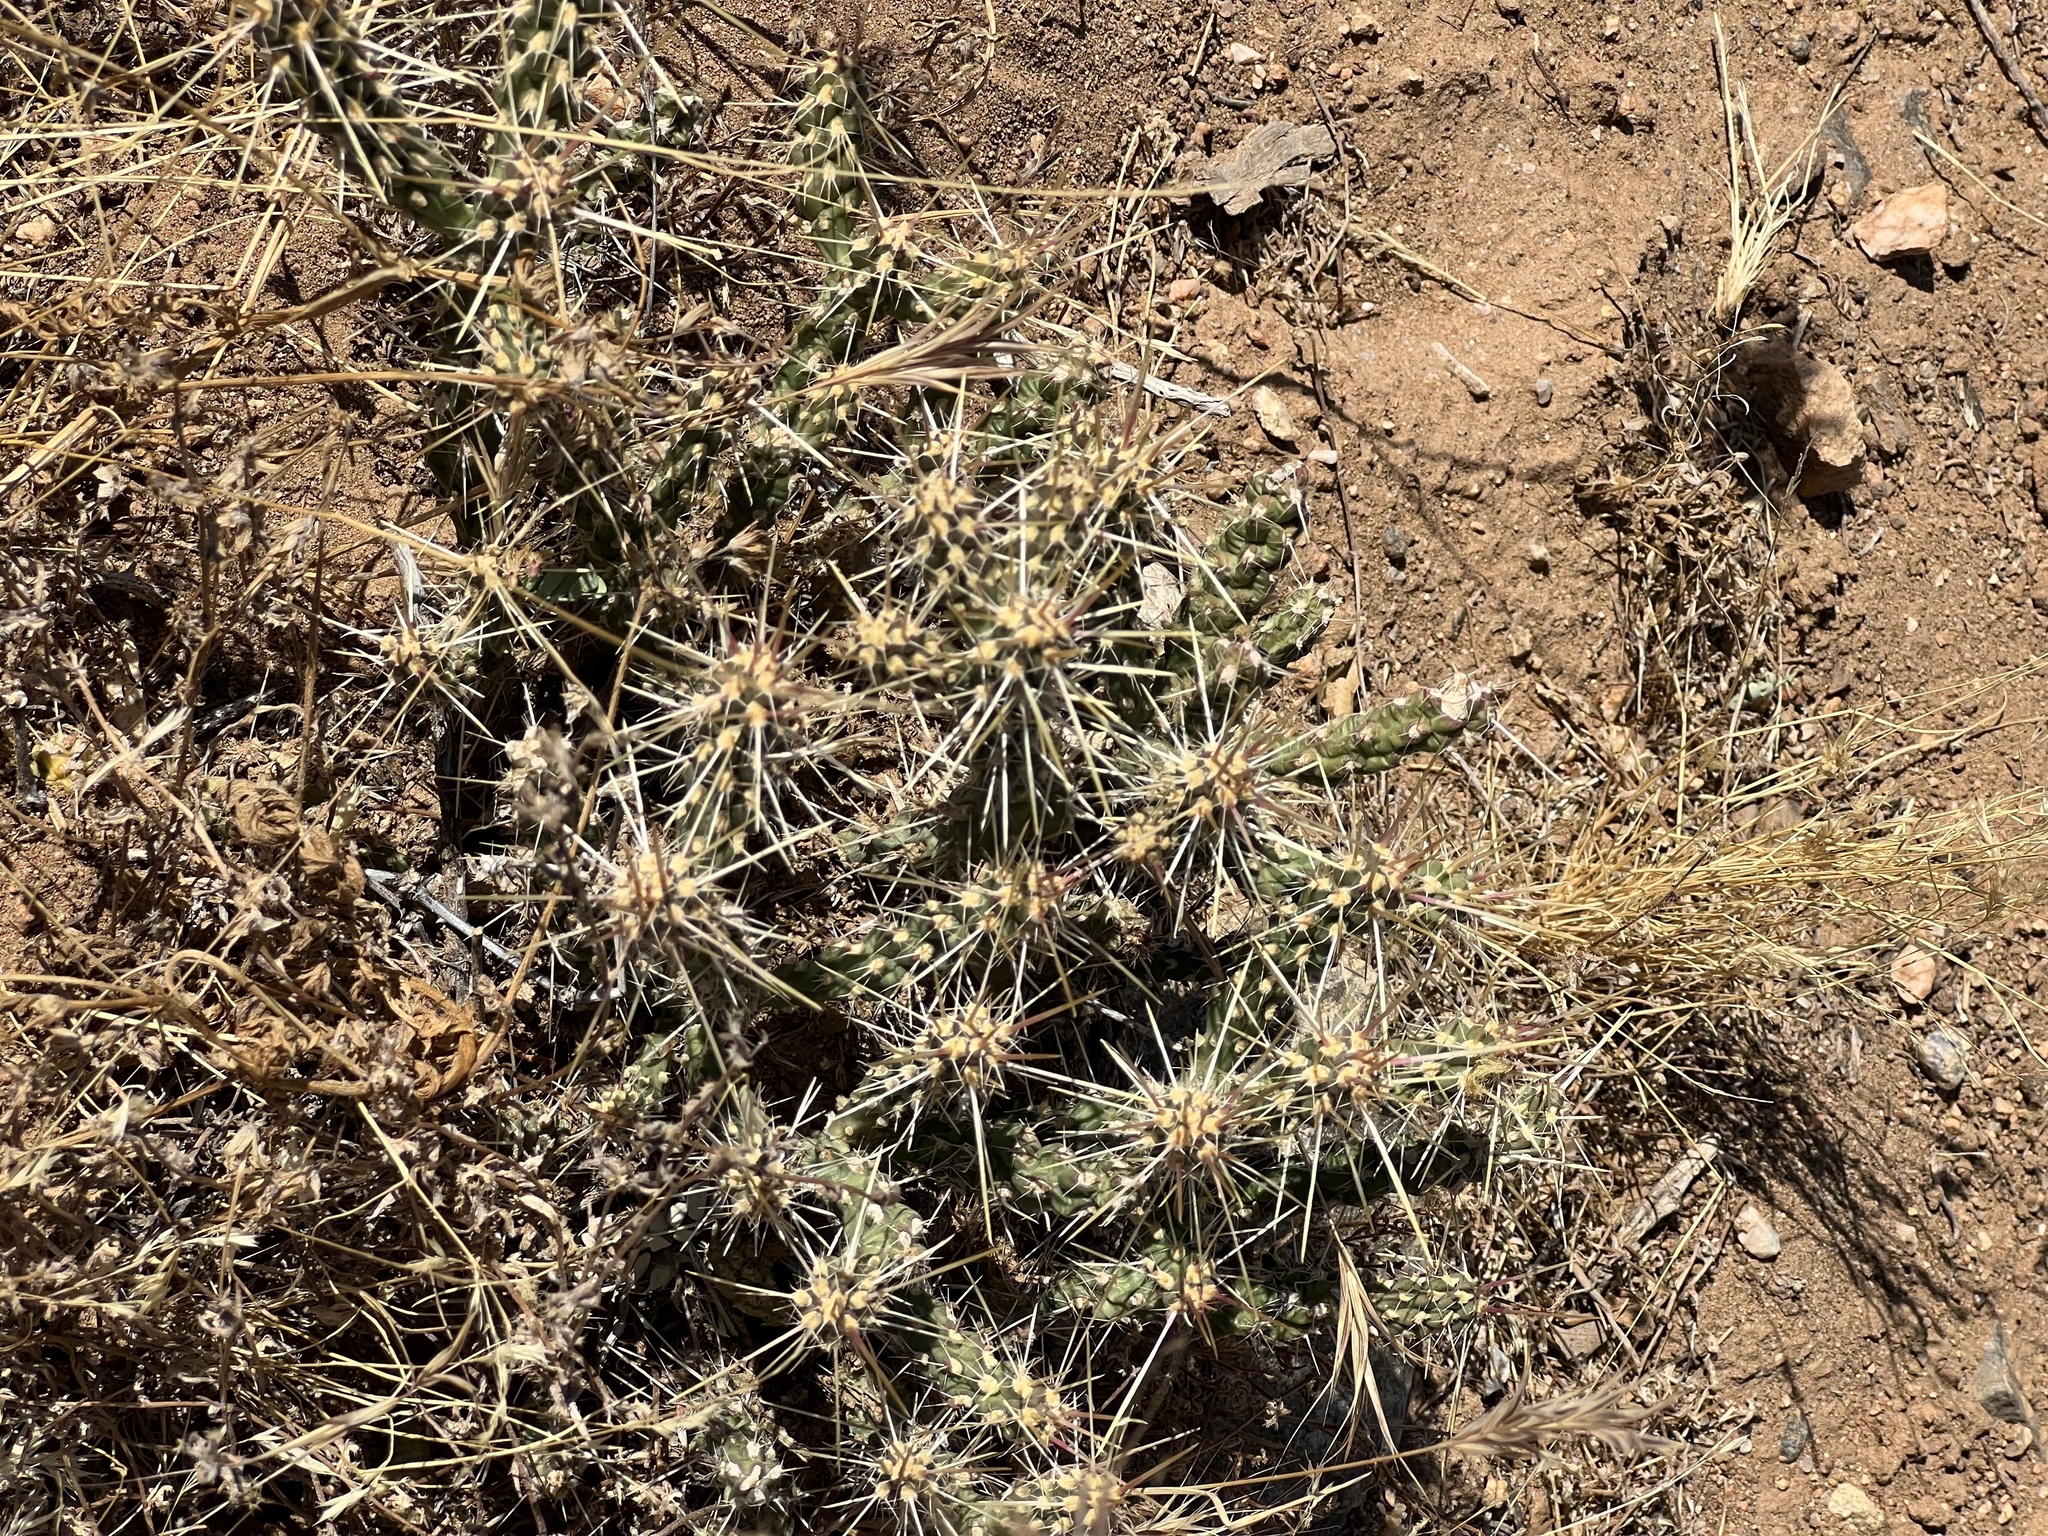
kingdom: Plantae
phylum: Tracheophyta
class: Magnoliopsida
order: Caryophyllales
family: Cactaceae
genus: Cylindropuntia
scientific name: Cylindropuntia whipplei
